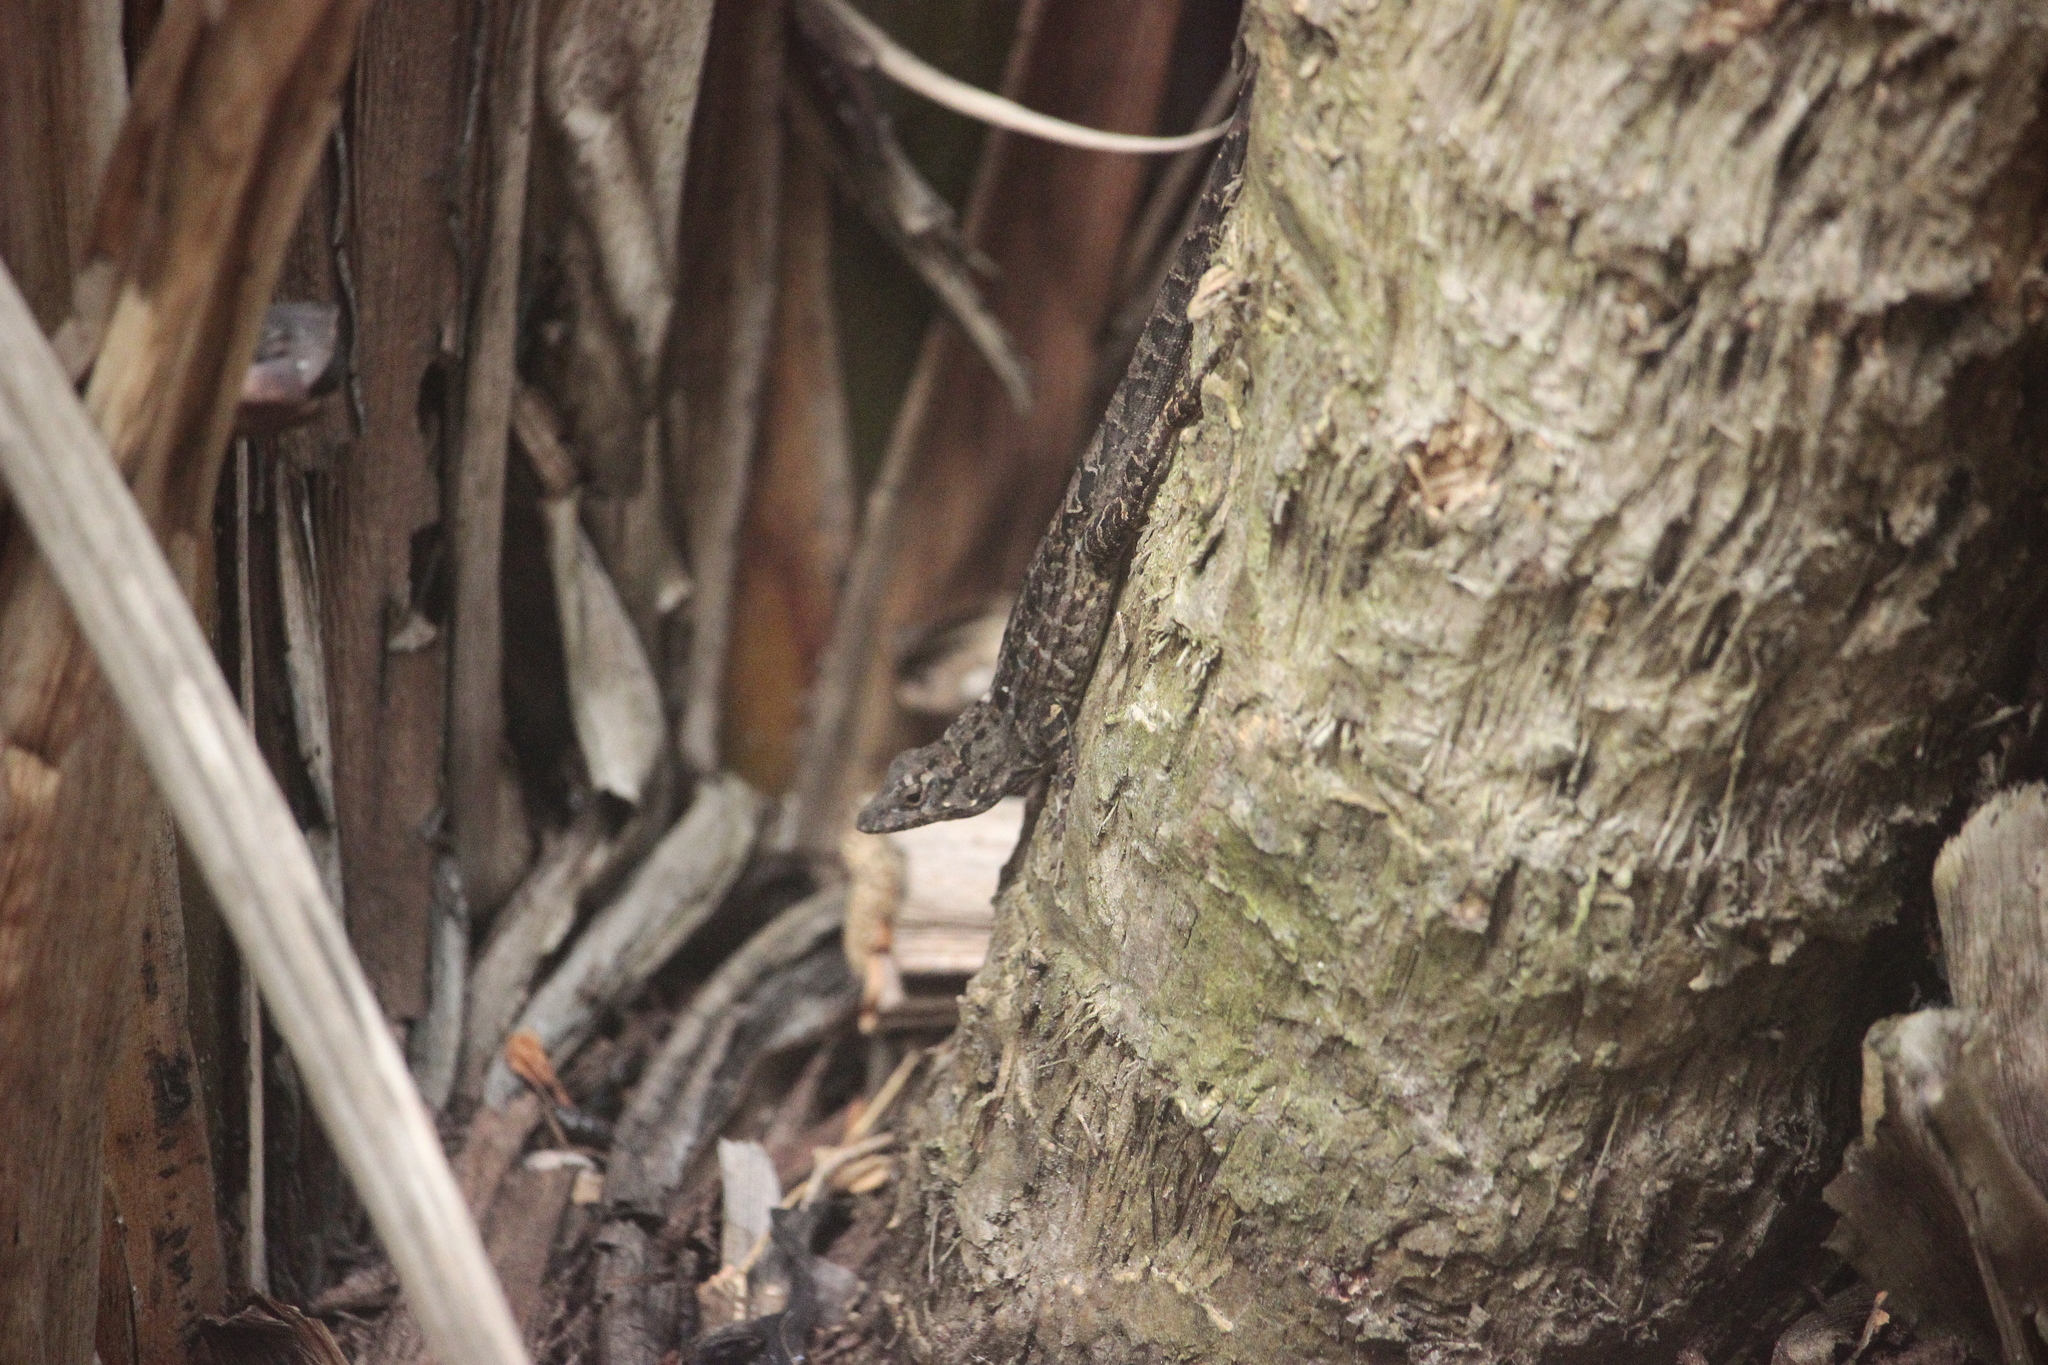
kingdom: Animalia
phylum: Chordata
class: Squamata
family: Dactyloidae
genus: Anolis
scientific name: Anolis sagrei
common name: Brown anole
